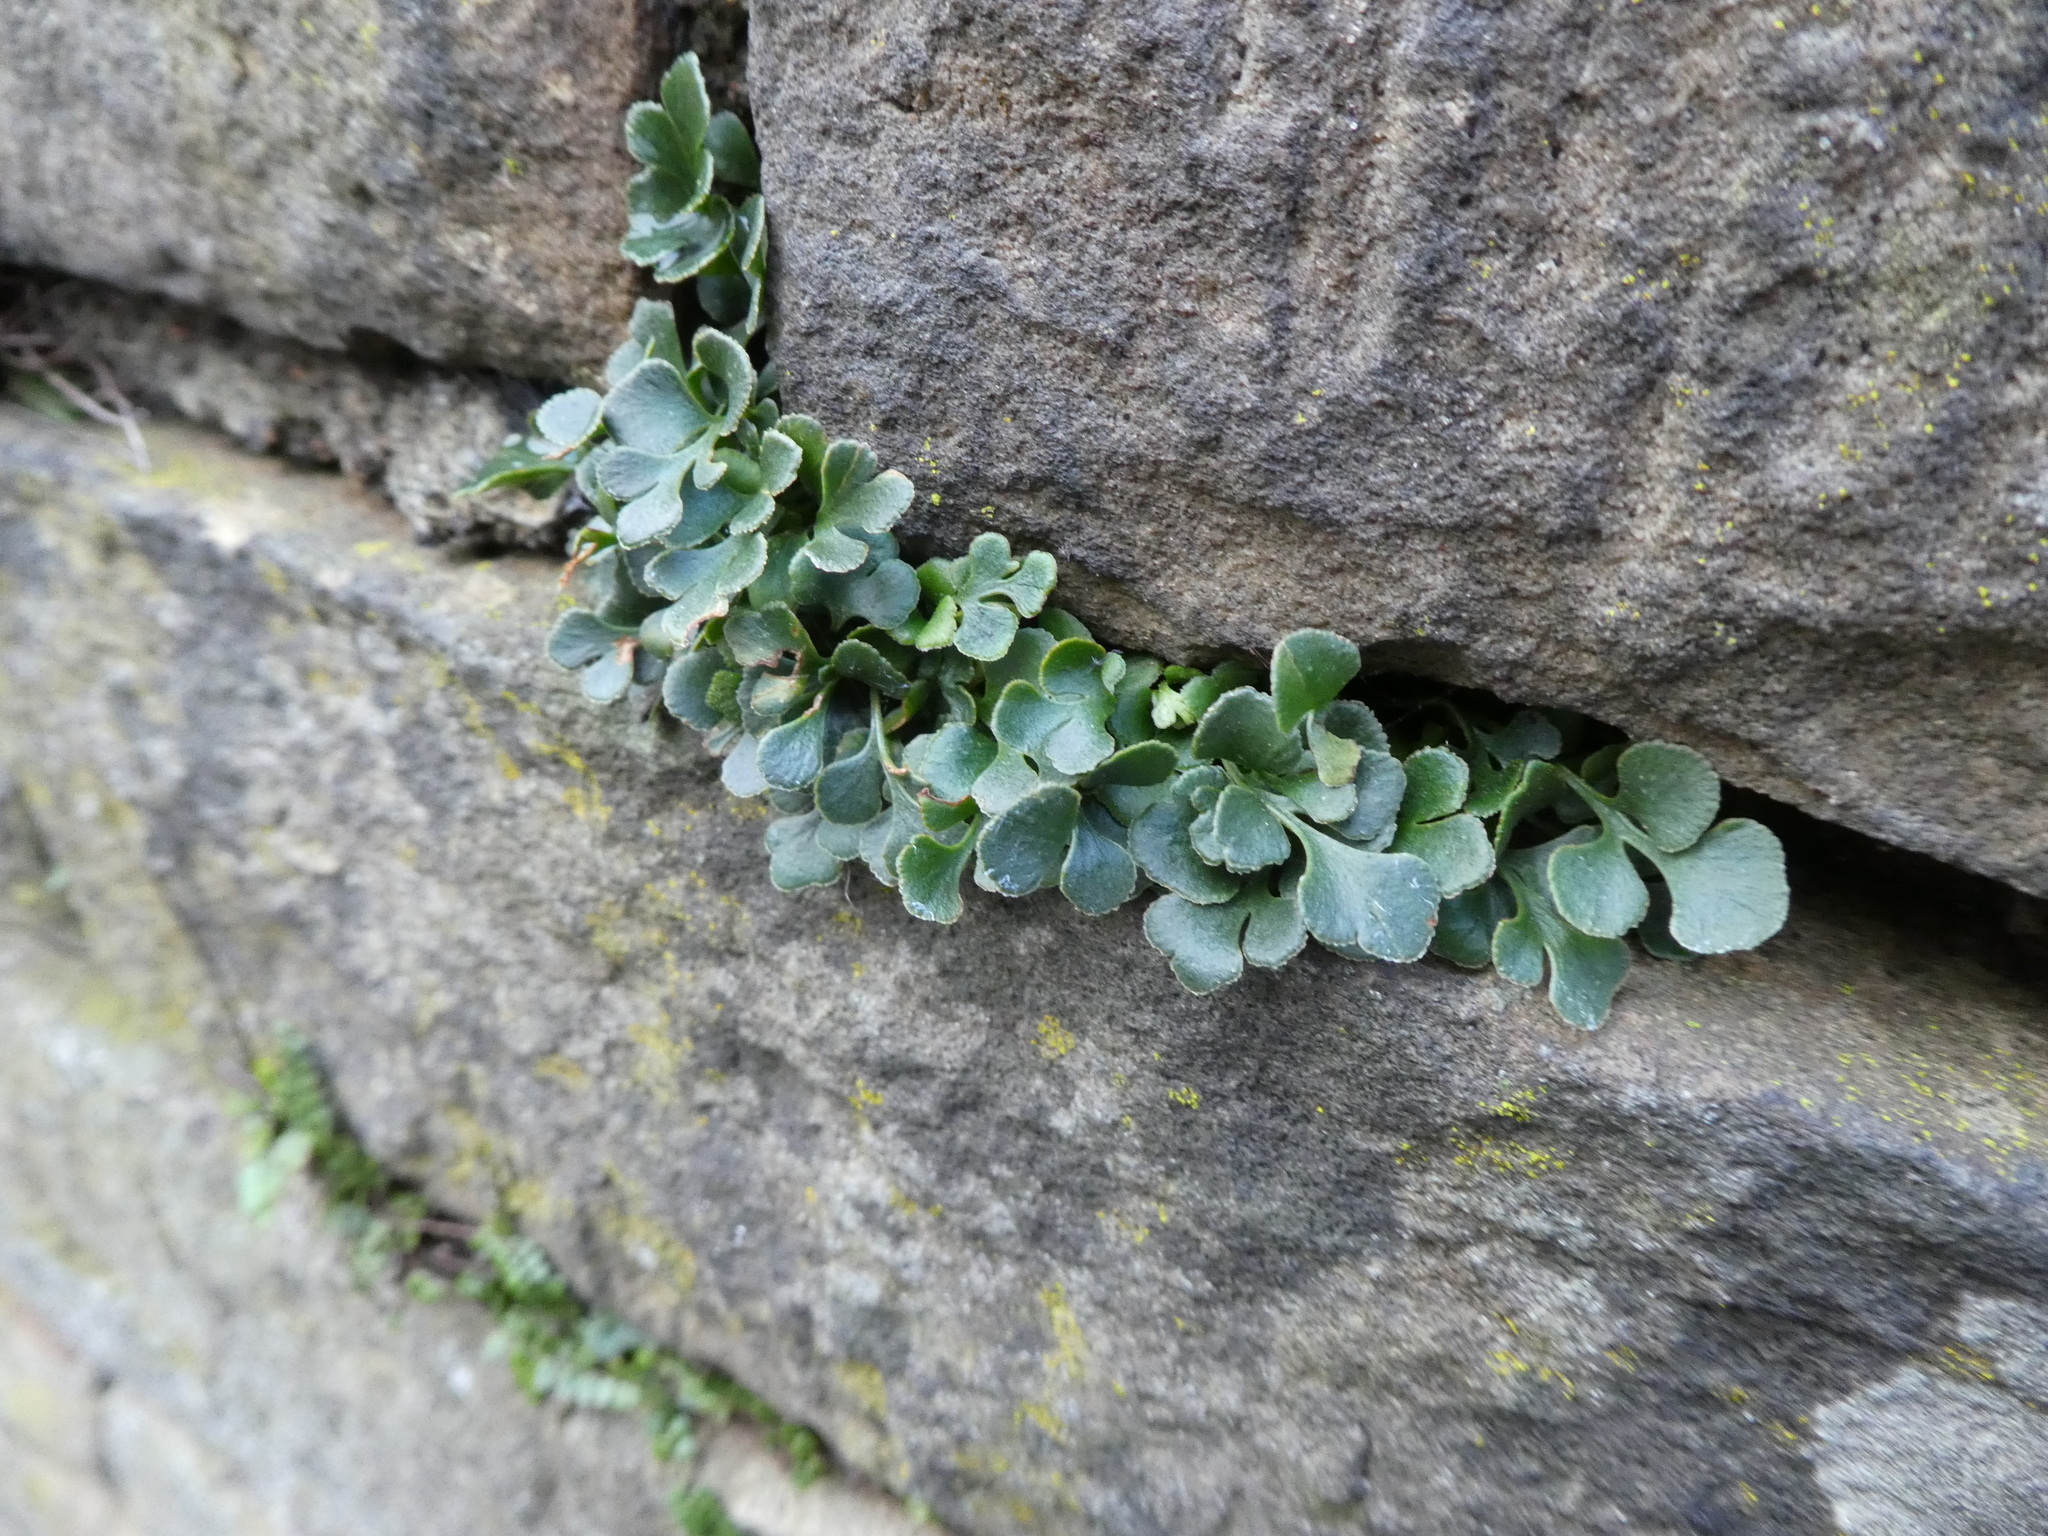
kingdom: Plantae
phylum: Tracheophyta
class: Polypodiopsida
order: Polypodiales
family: Aspleniaceae
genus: Asplenium
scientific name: Asplenium ruta-muraria
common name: Wall-rue
